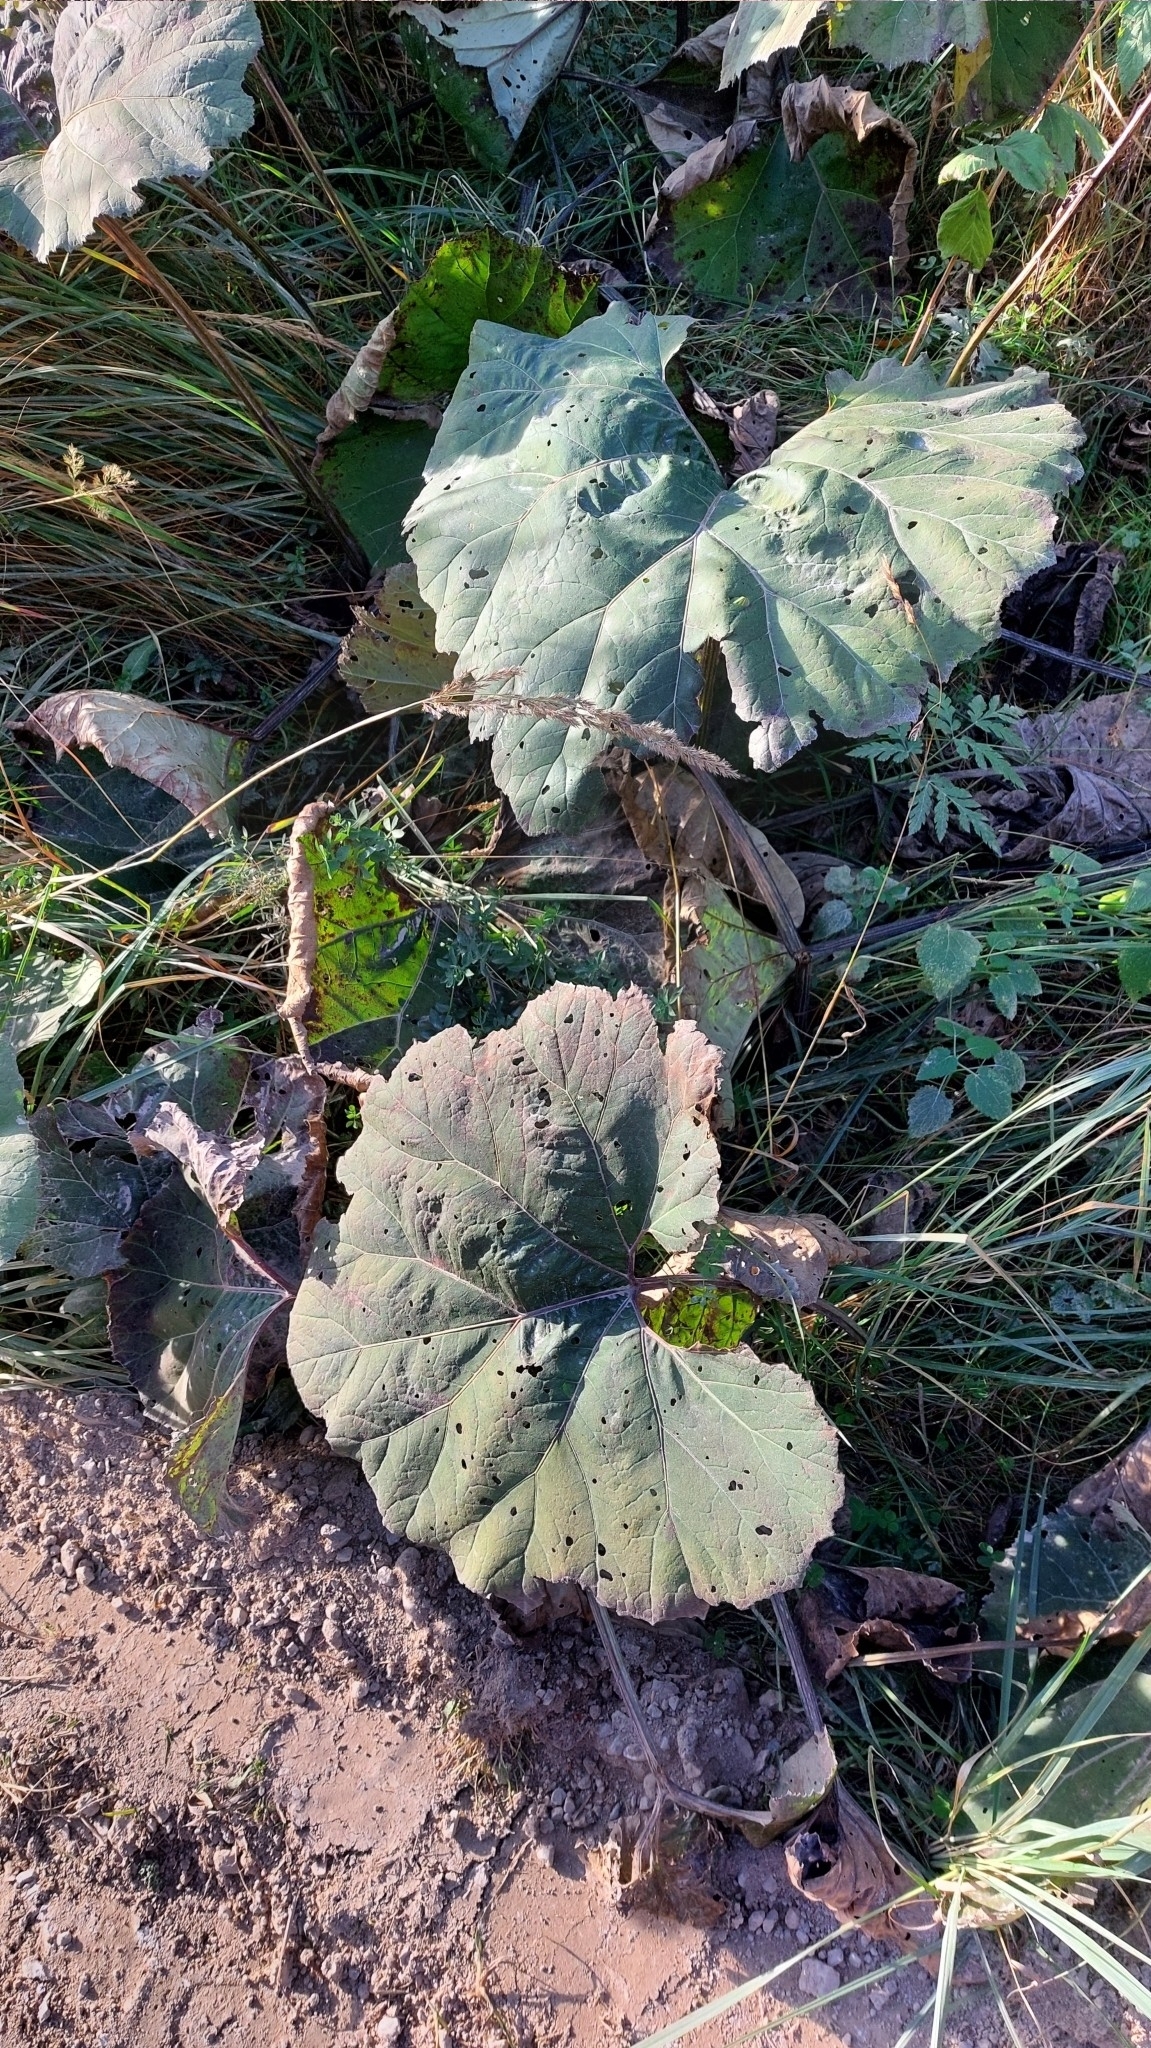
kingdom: Plantae
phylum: Tracheophyta
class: Magnoliopsida
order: Asterales
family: Asteraceae
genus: Petasites
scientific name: Petasites hybridus
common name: Butterbur
